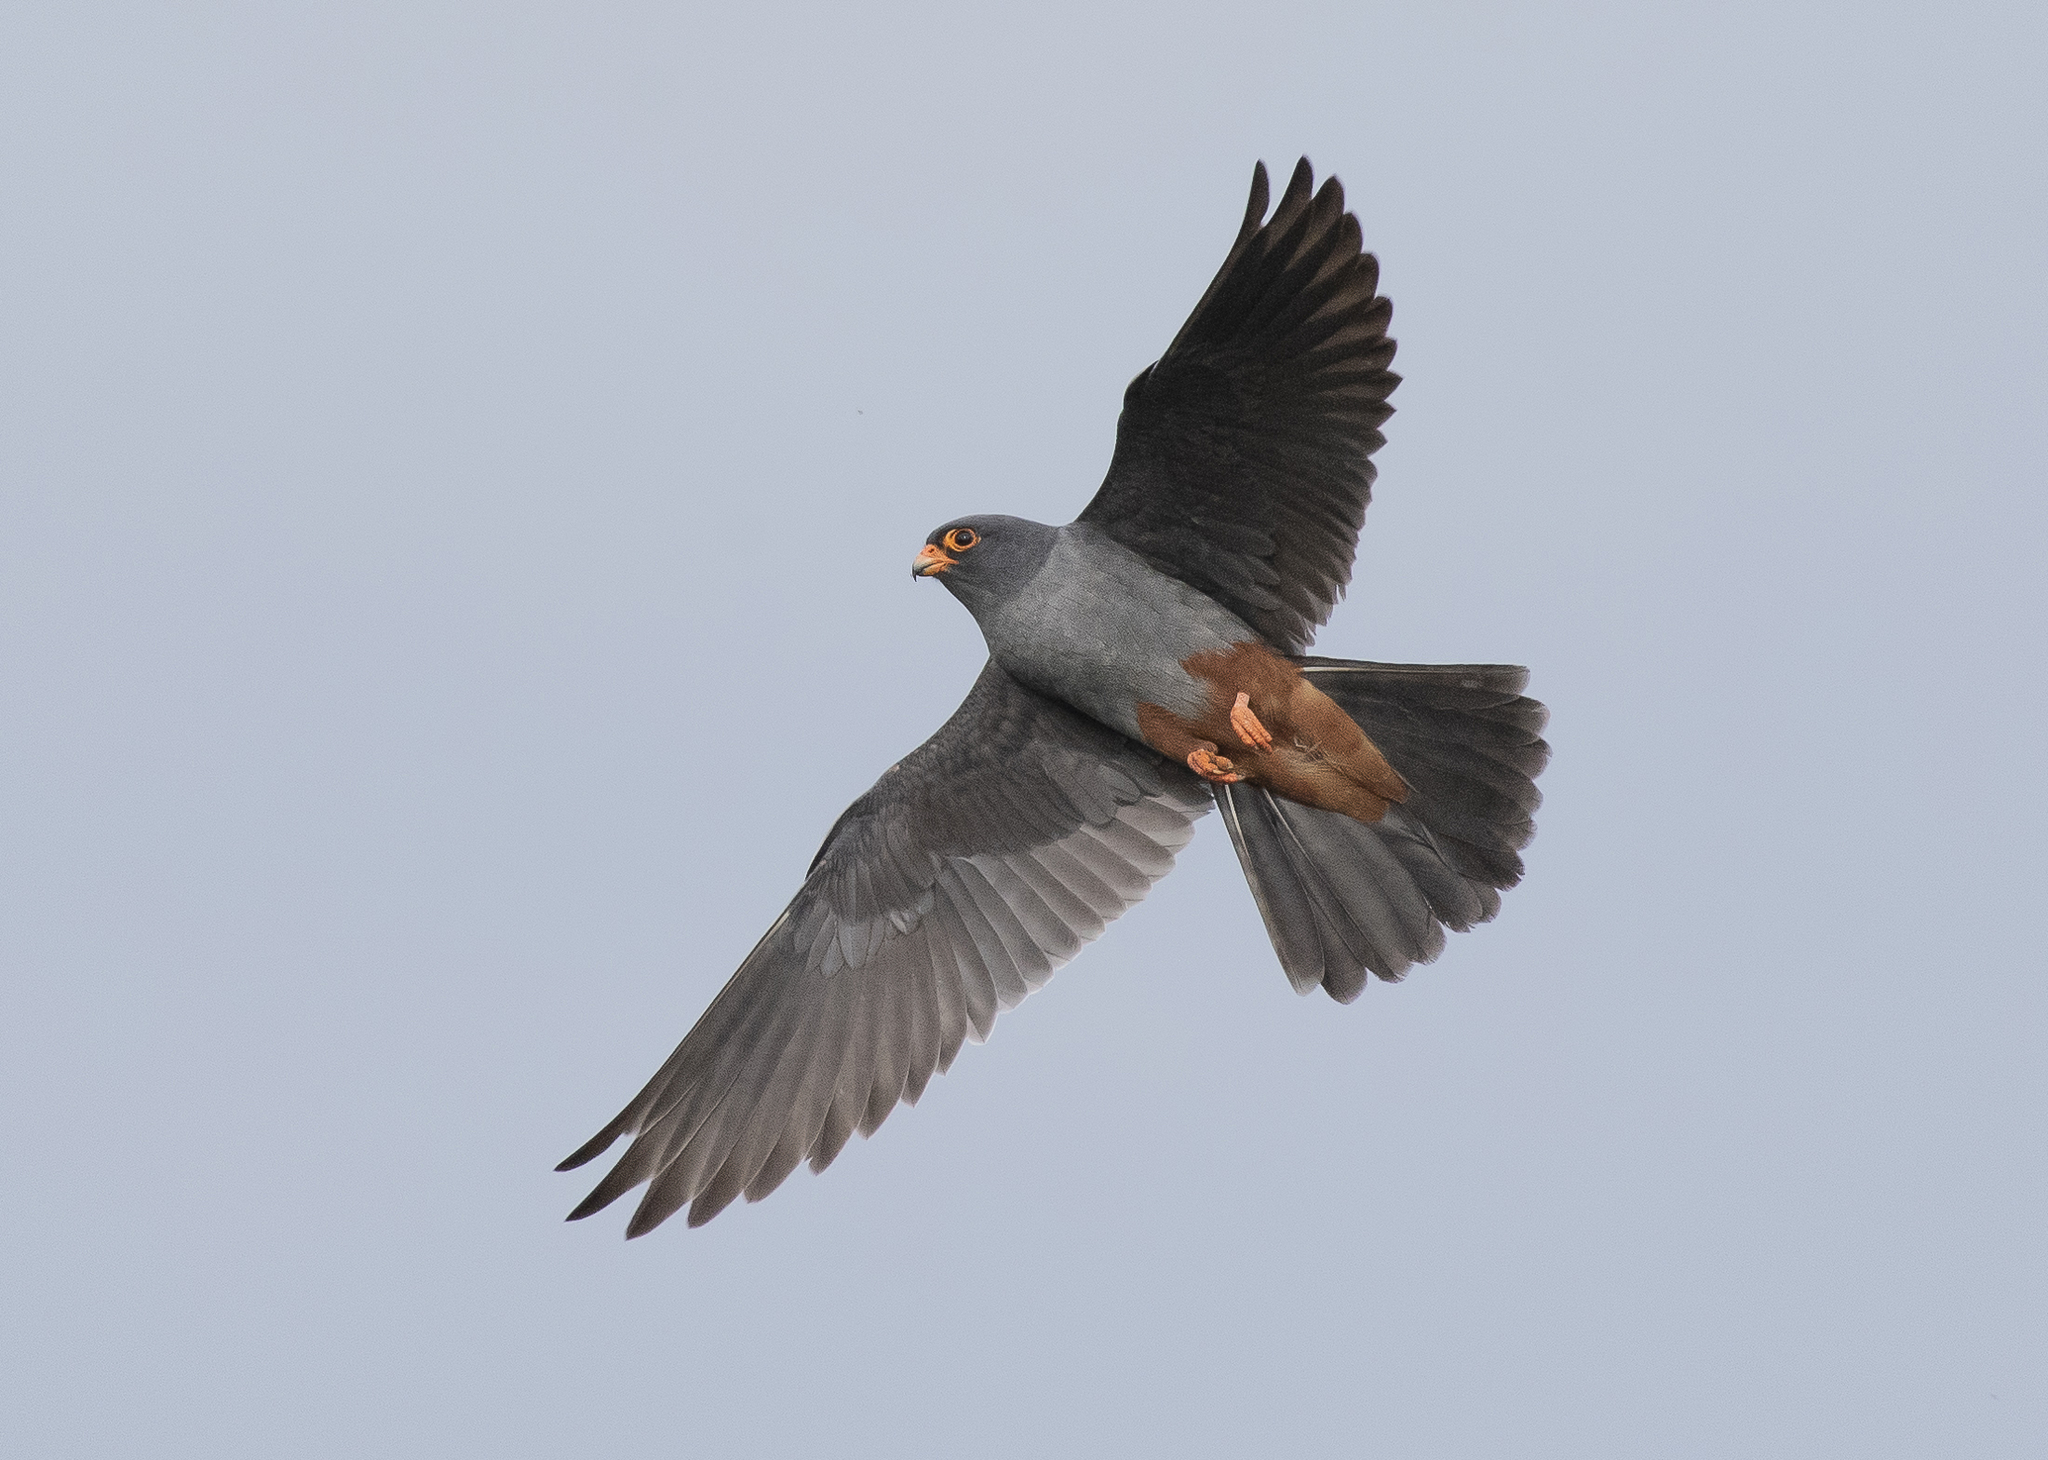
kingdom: Animalia
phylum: Chordata
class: Aves
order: Falconiformes
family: Falconidae
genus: Falco
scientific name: Falco vespertinus
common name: Red-footed falcon
